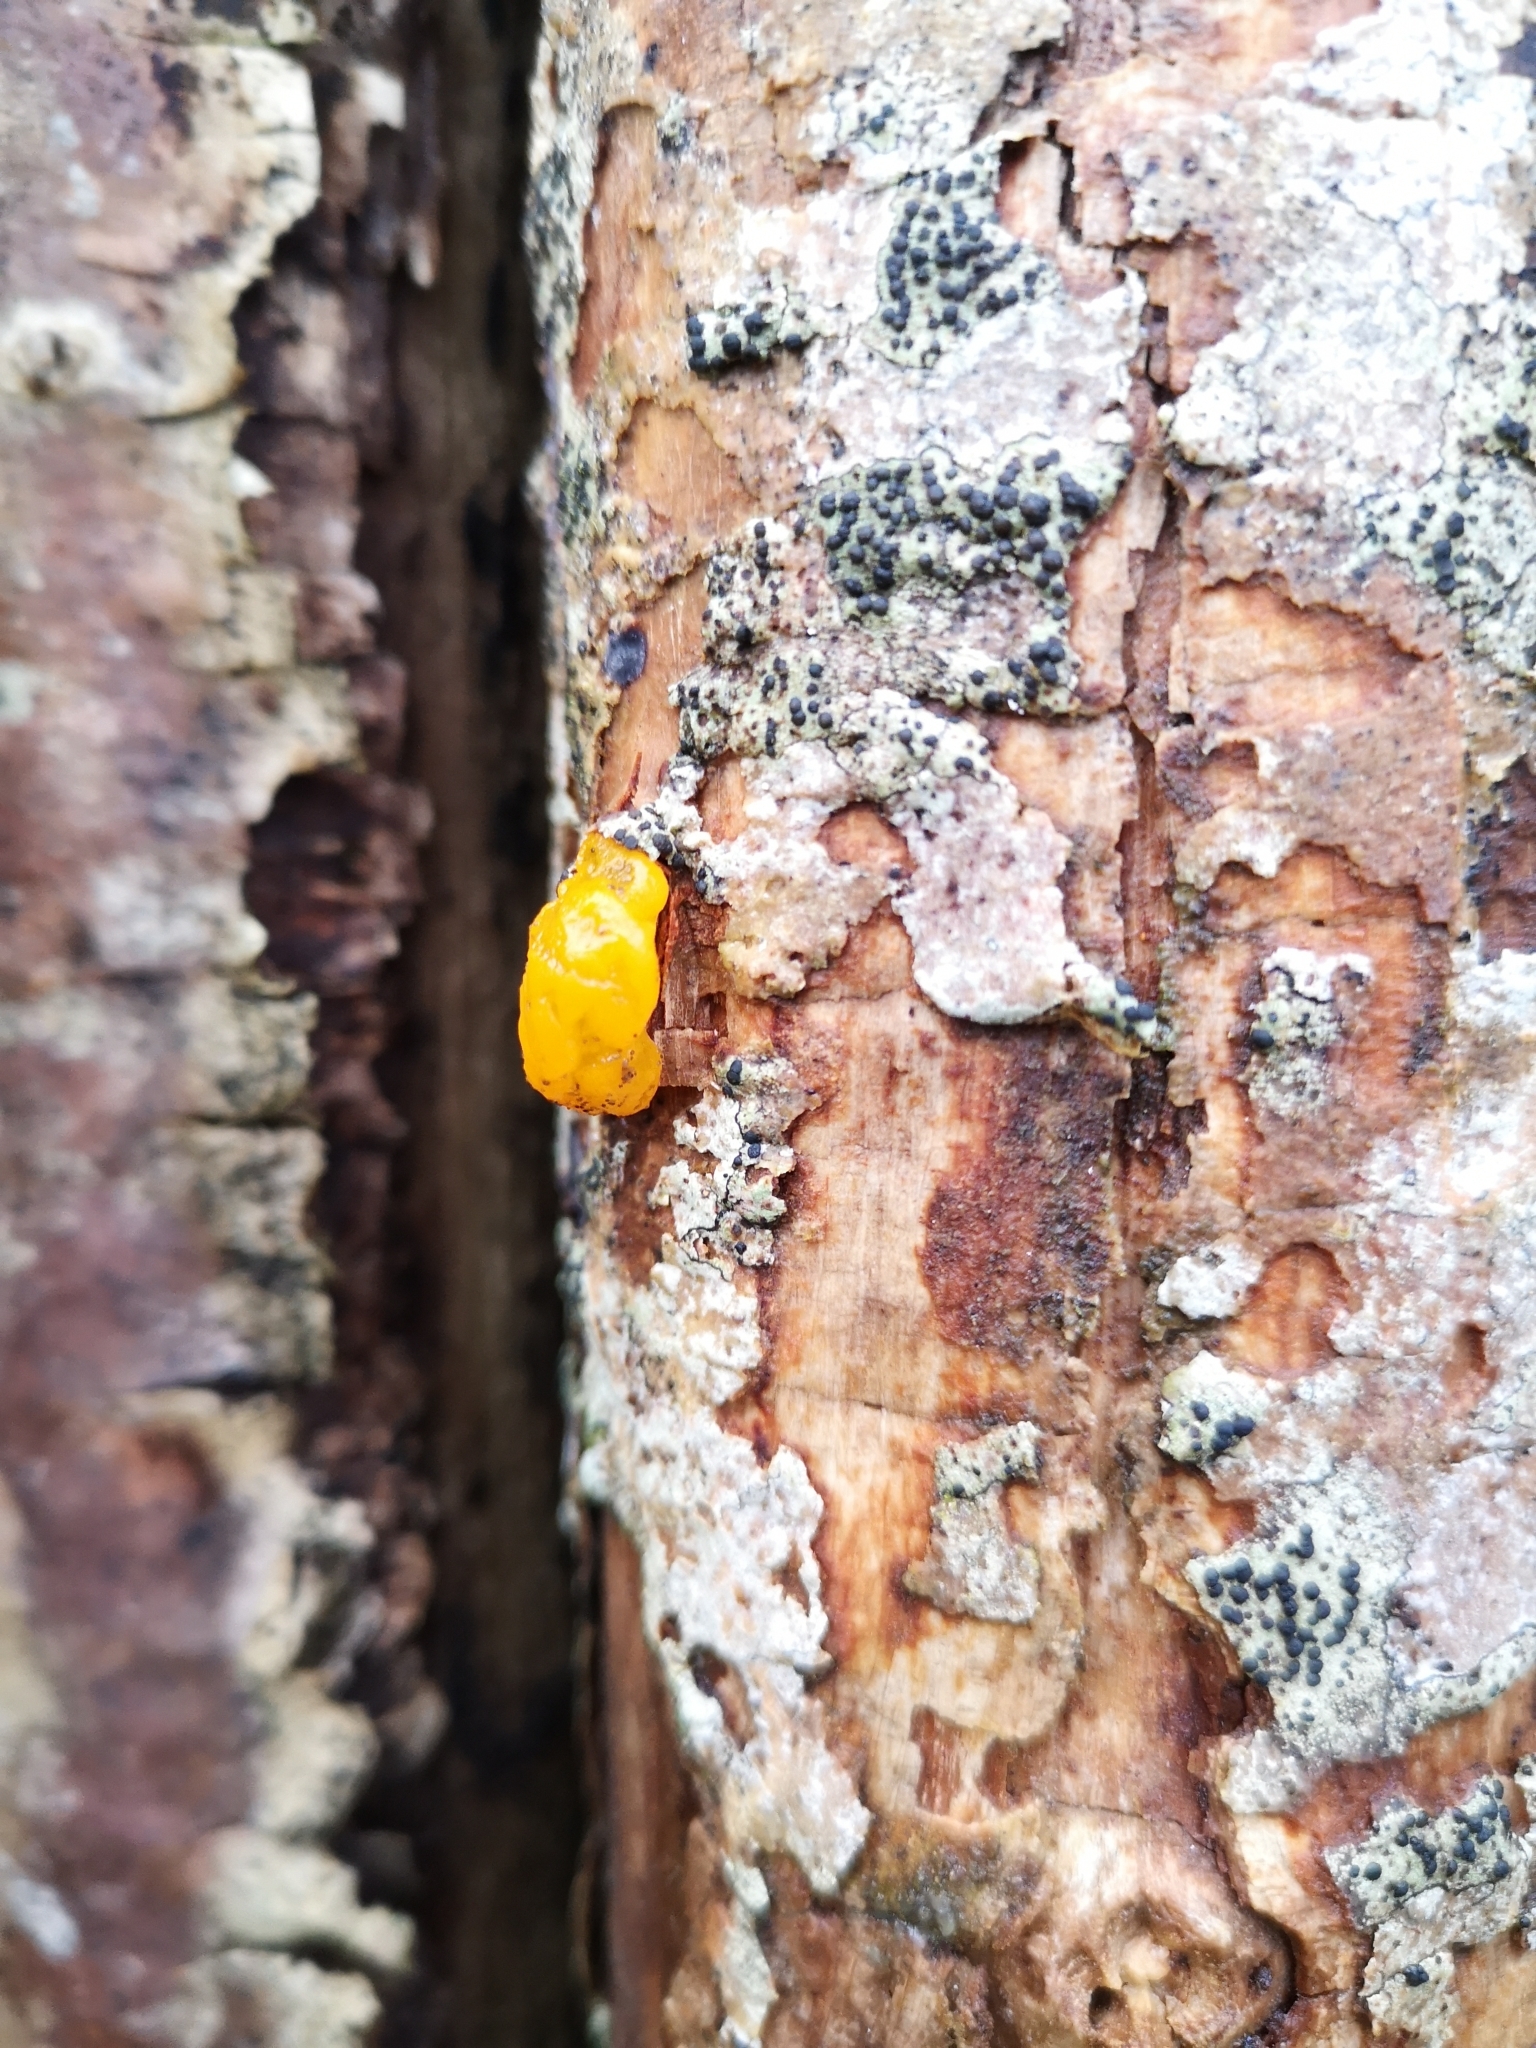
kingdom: Fungi
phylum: Basidiomycota
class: Tremellomycetes
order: Tremellales
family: Tremellaceae
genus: Tremella
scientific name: Tremella mesenterica
